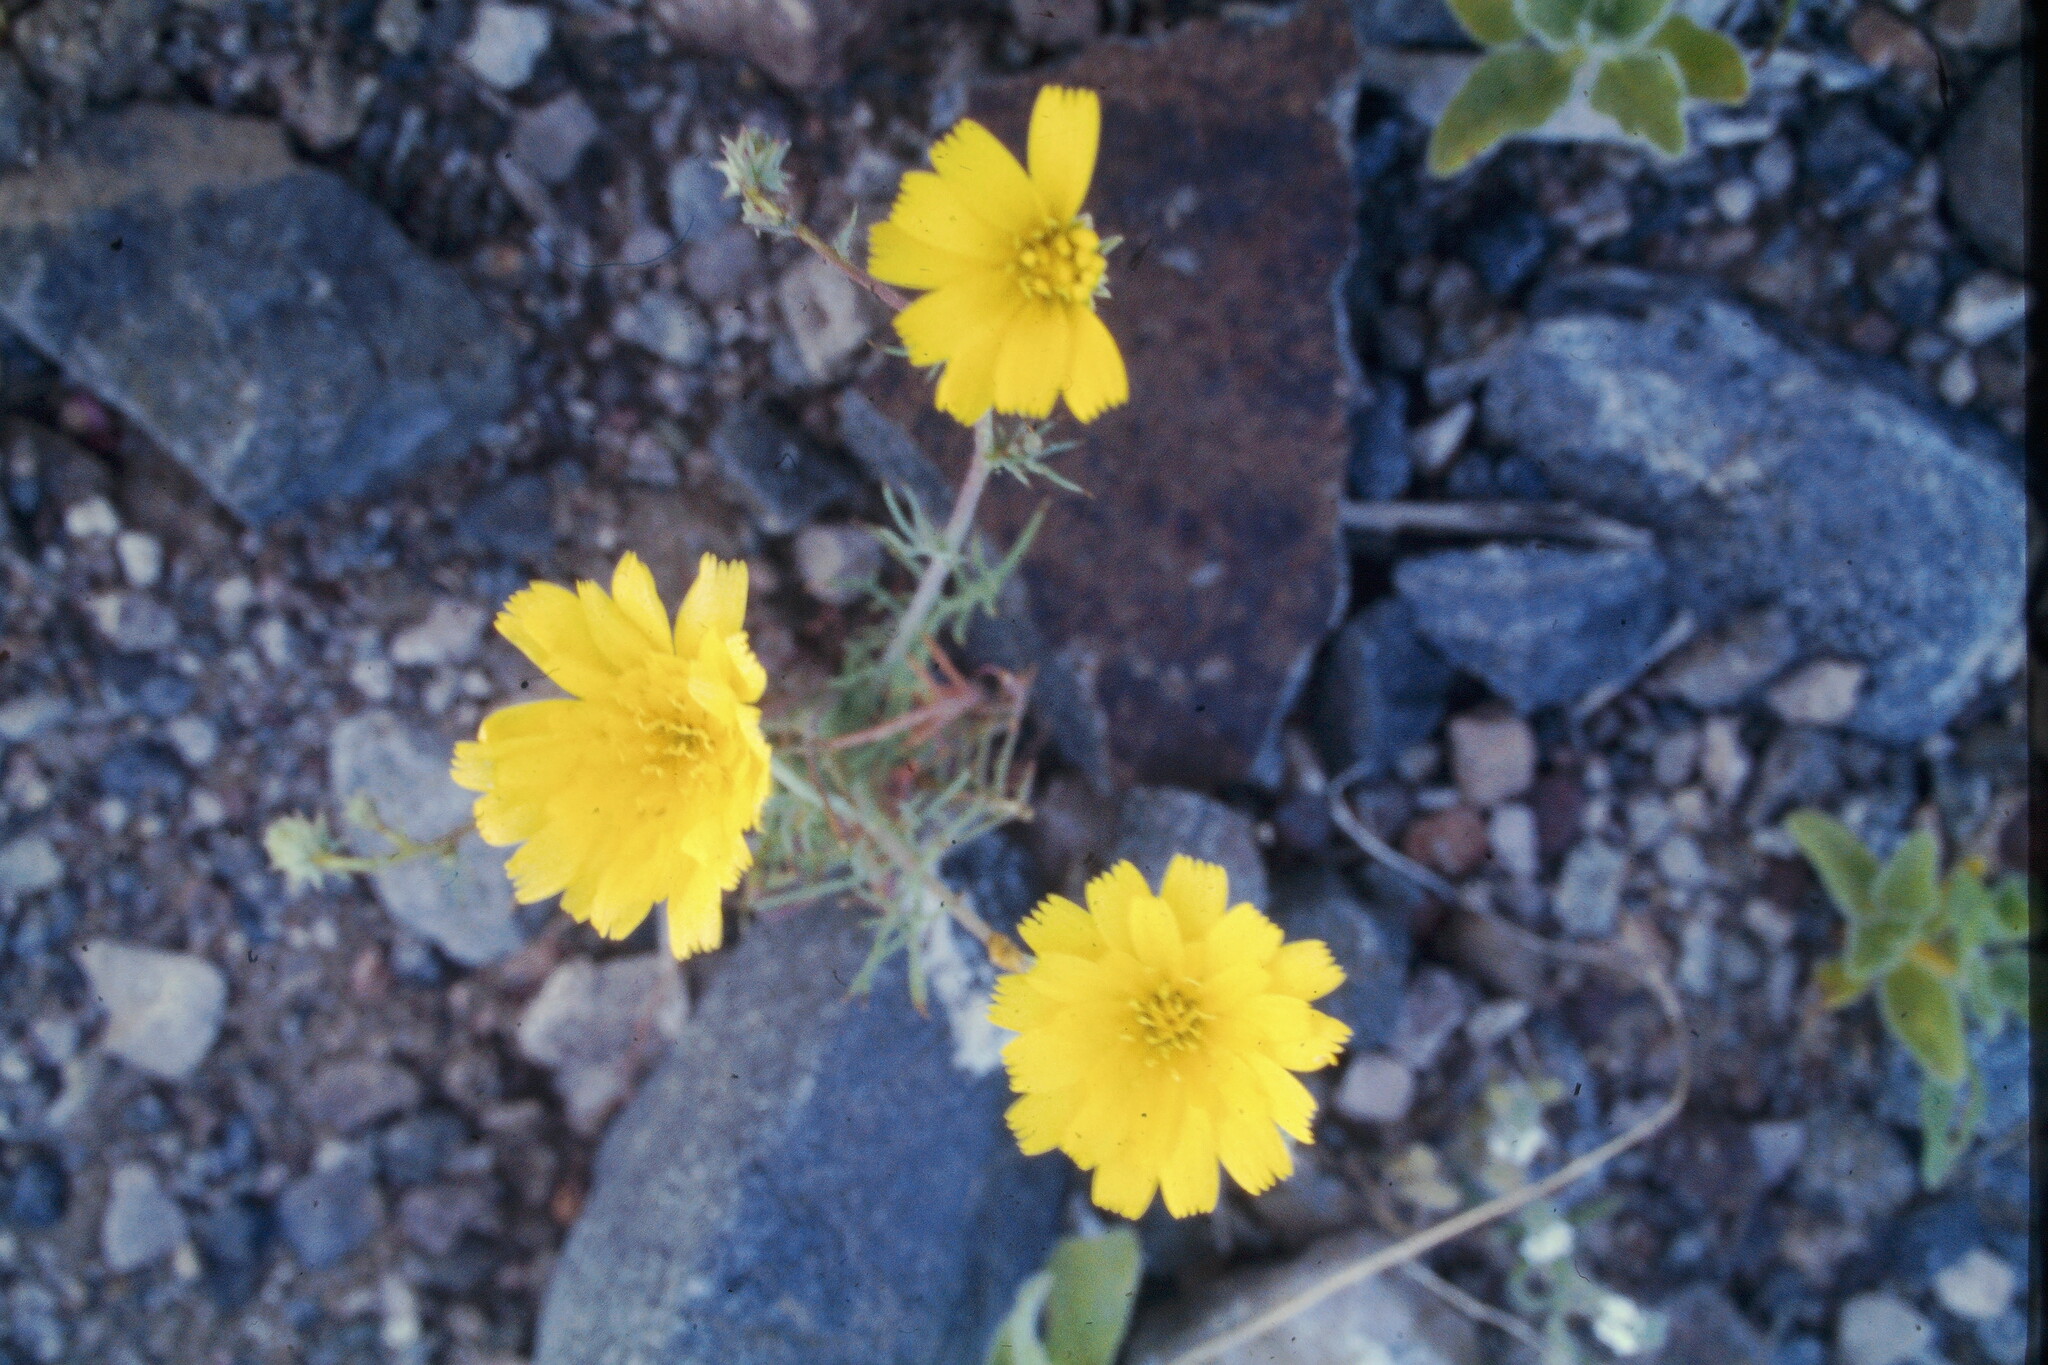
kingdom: Plantae
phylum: Tracheophyta
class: Magnoliopsida
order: Asterales
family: Asteraceae
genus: Calycoseris
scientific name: Calycoseris parryi
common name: Yellow tackstem
